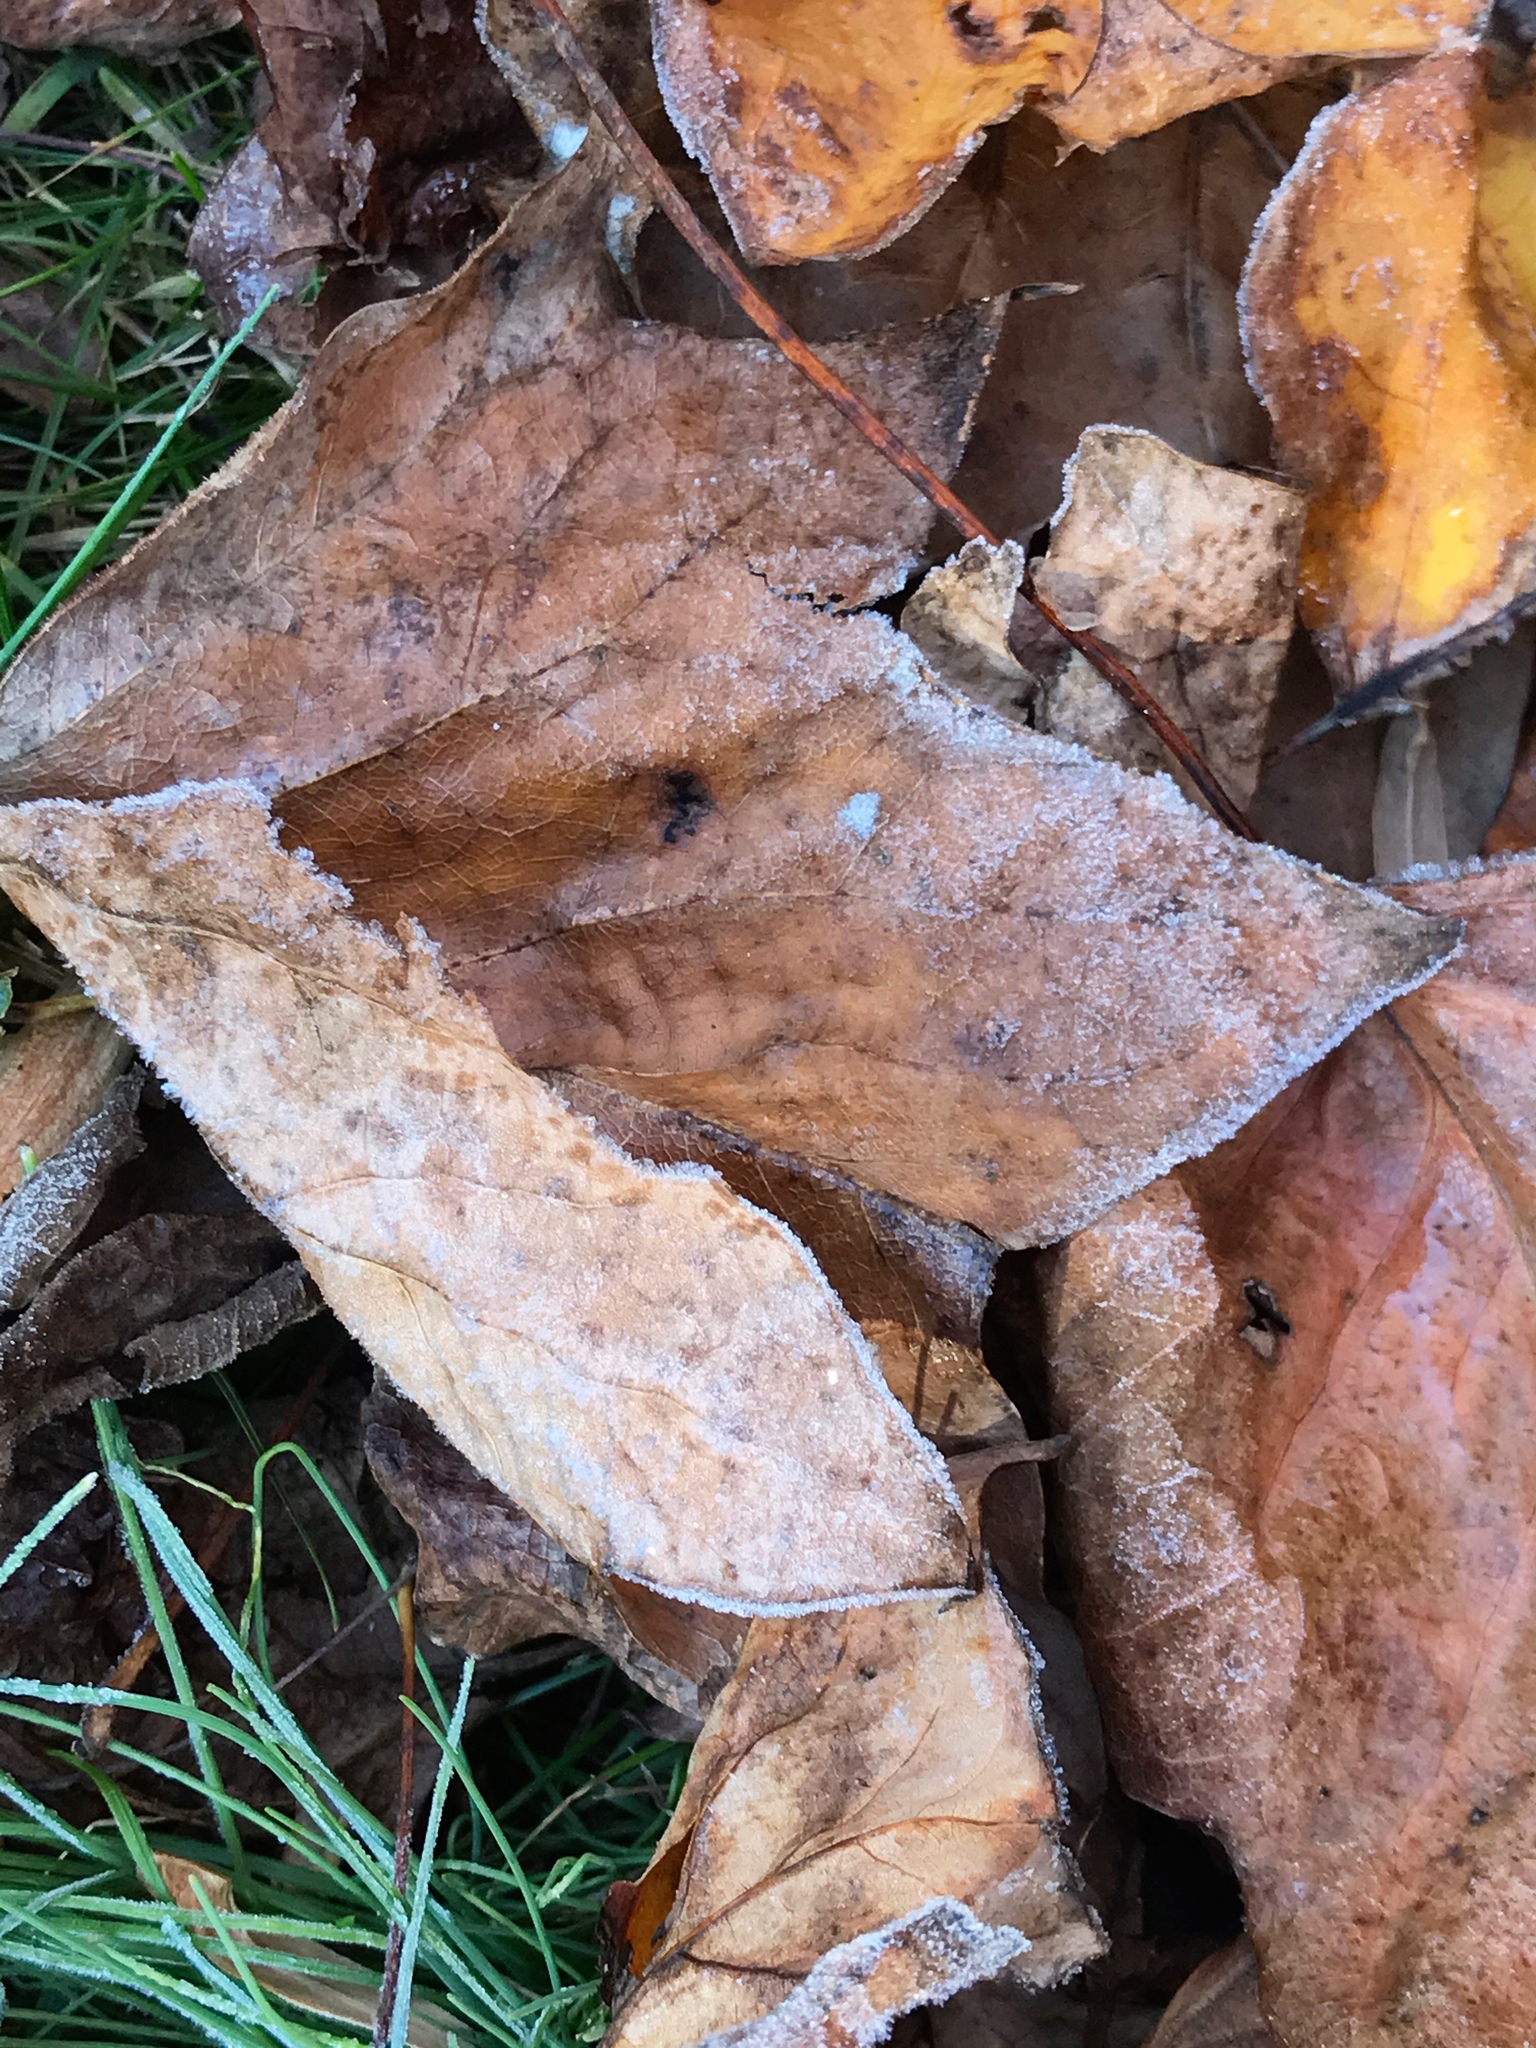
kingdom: Plantae
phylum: Tracheophyta
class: Magnoliopsida
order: Magnoliales
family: Magnoliaceae
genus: Liriodendron
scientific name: Liriodendron tulipifera
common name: Tulip tree
